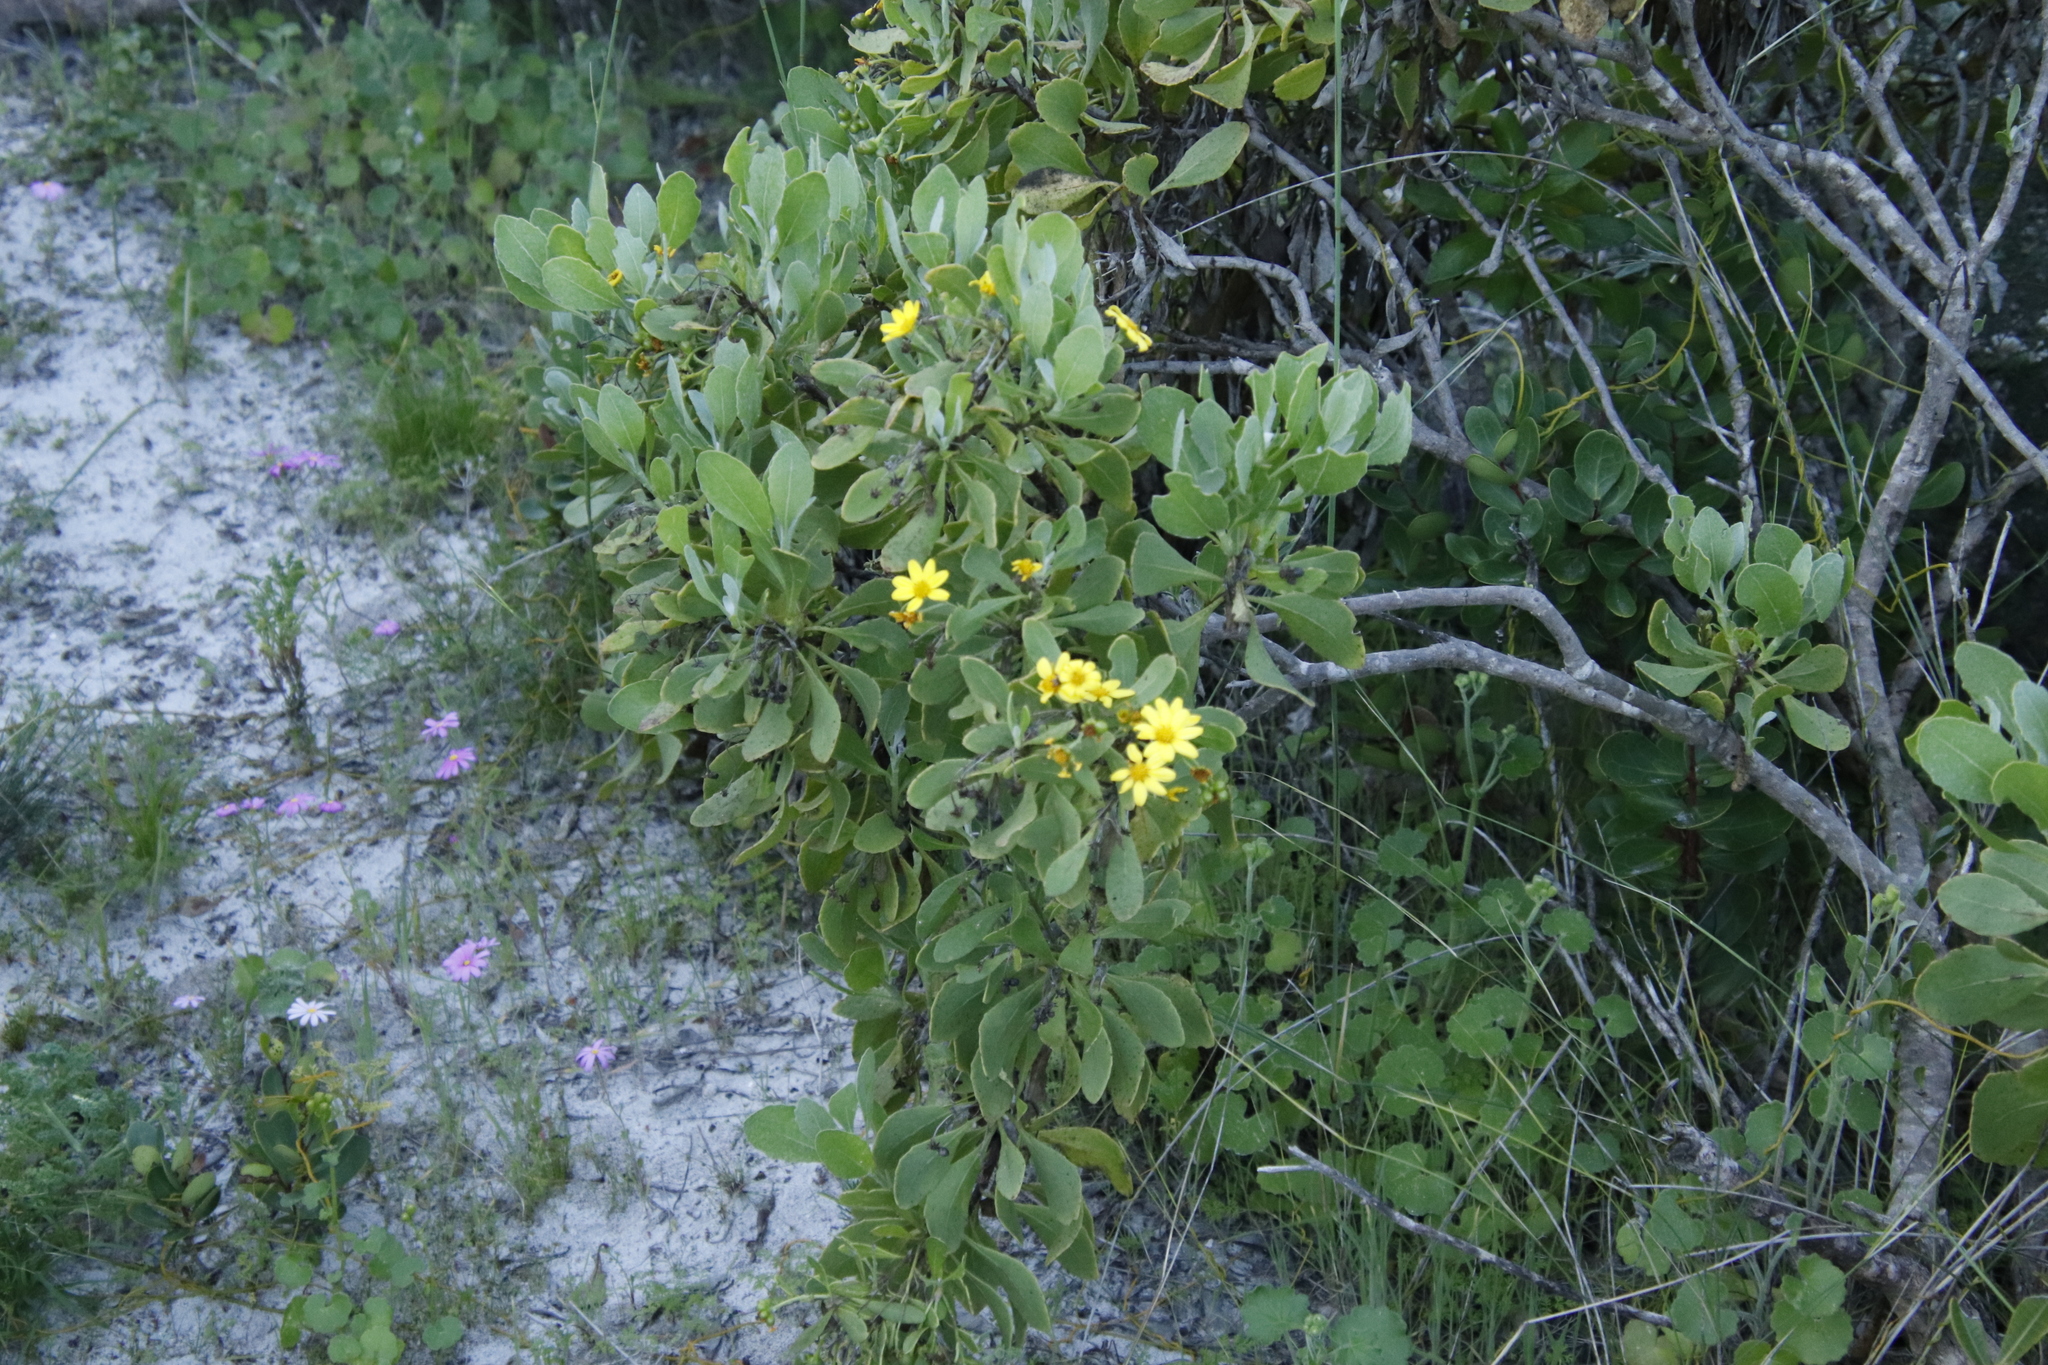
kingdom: Plantae
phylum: Tracheophyta
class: Magnoliopsida
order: Asterales
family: Asteraceae
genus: Osteospermum
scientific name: Osteospermum moniliferum
